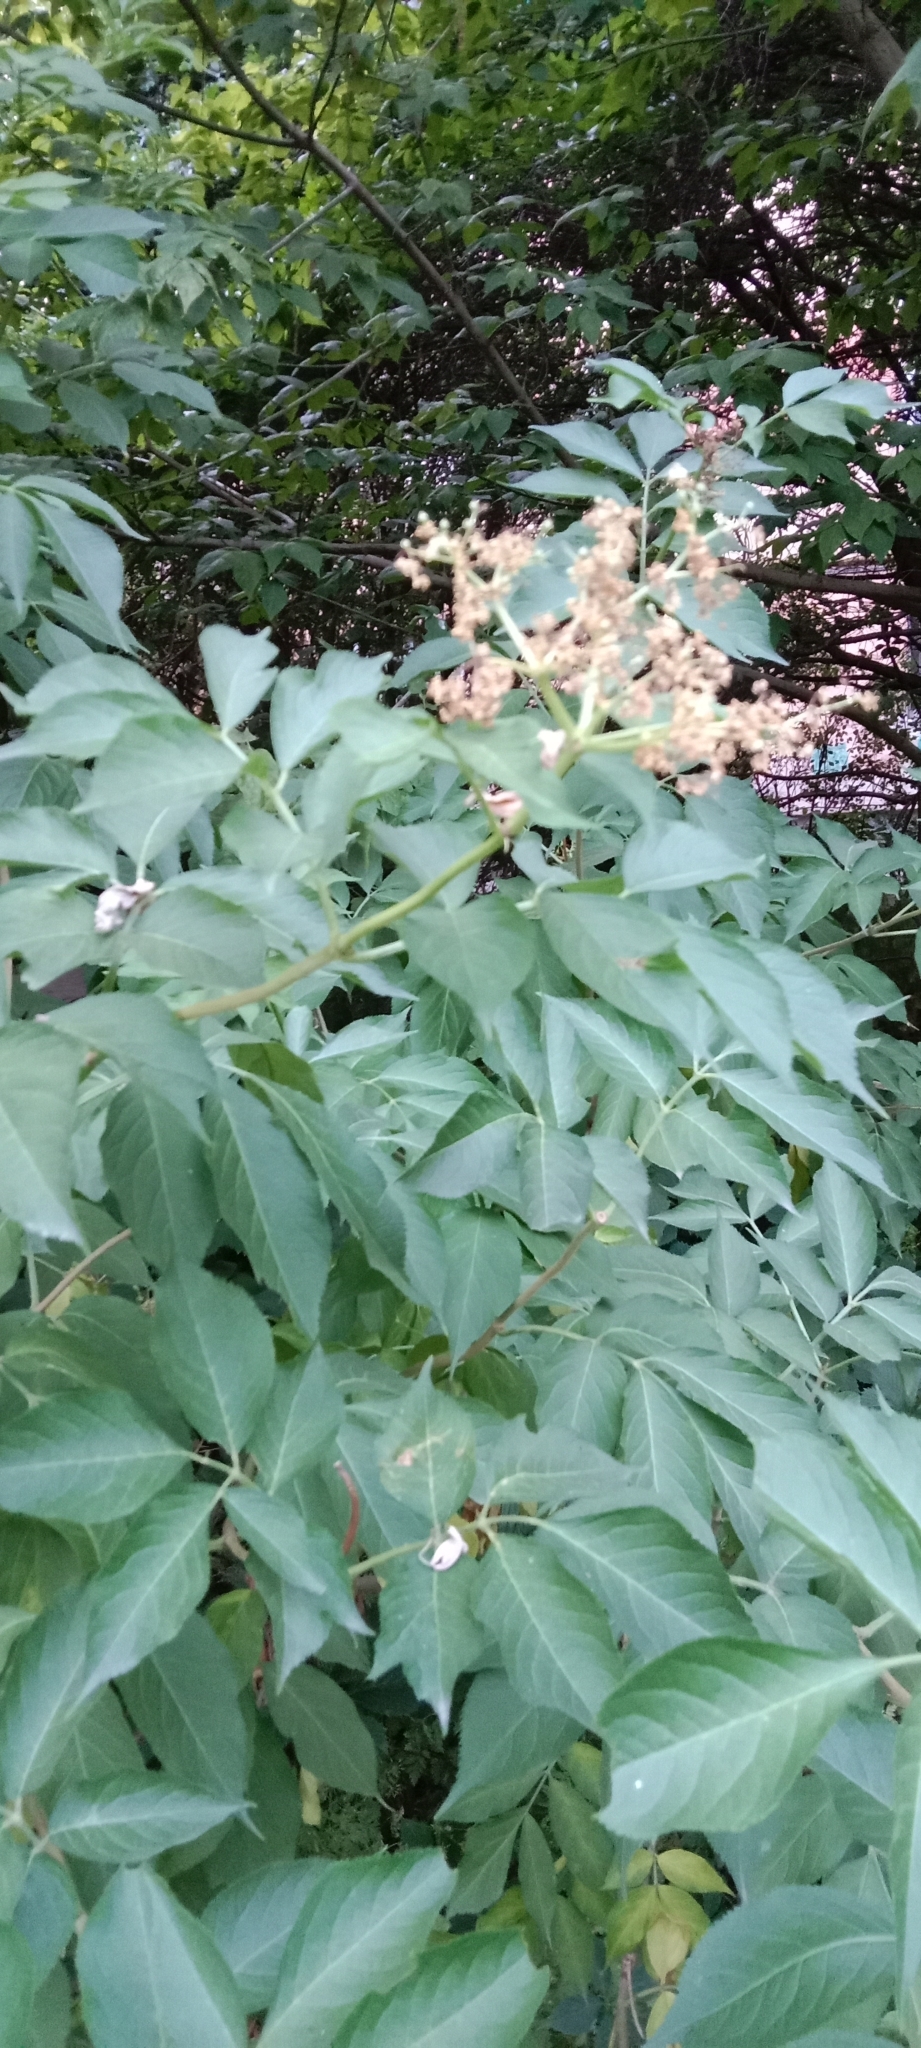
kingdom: Plantae
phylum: Tracheophyta
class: Magnoliopsida
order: Dipsacales
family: Viburnaceae
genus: Sambucus
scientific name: Sambucus nigra
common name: Elder
